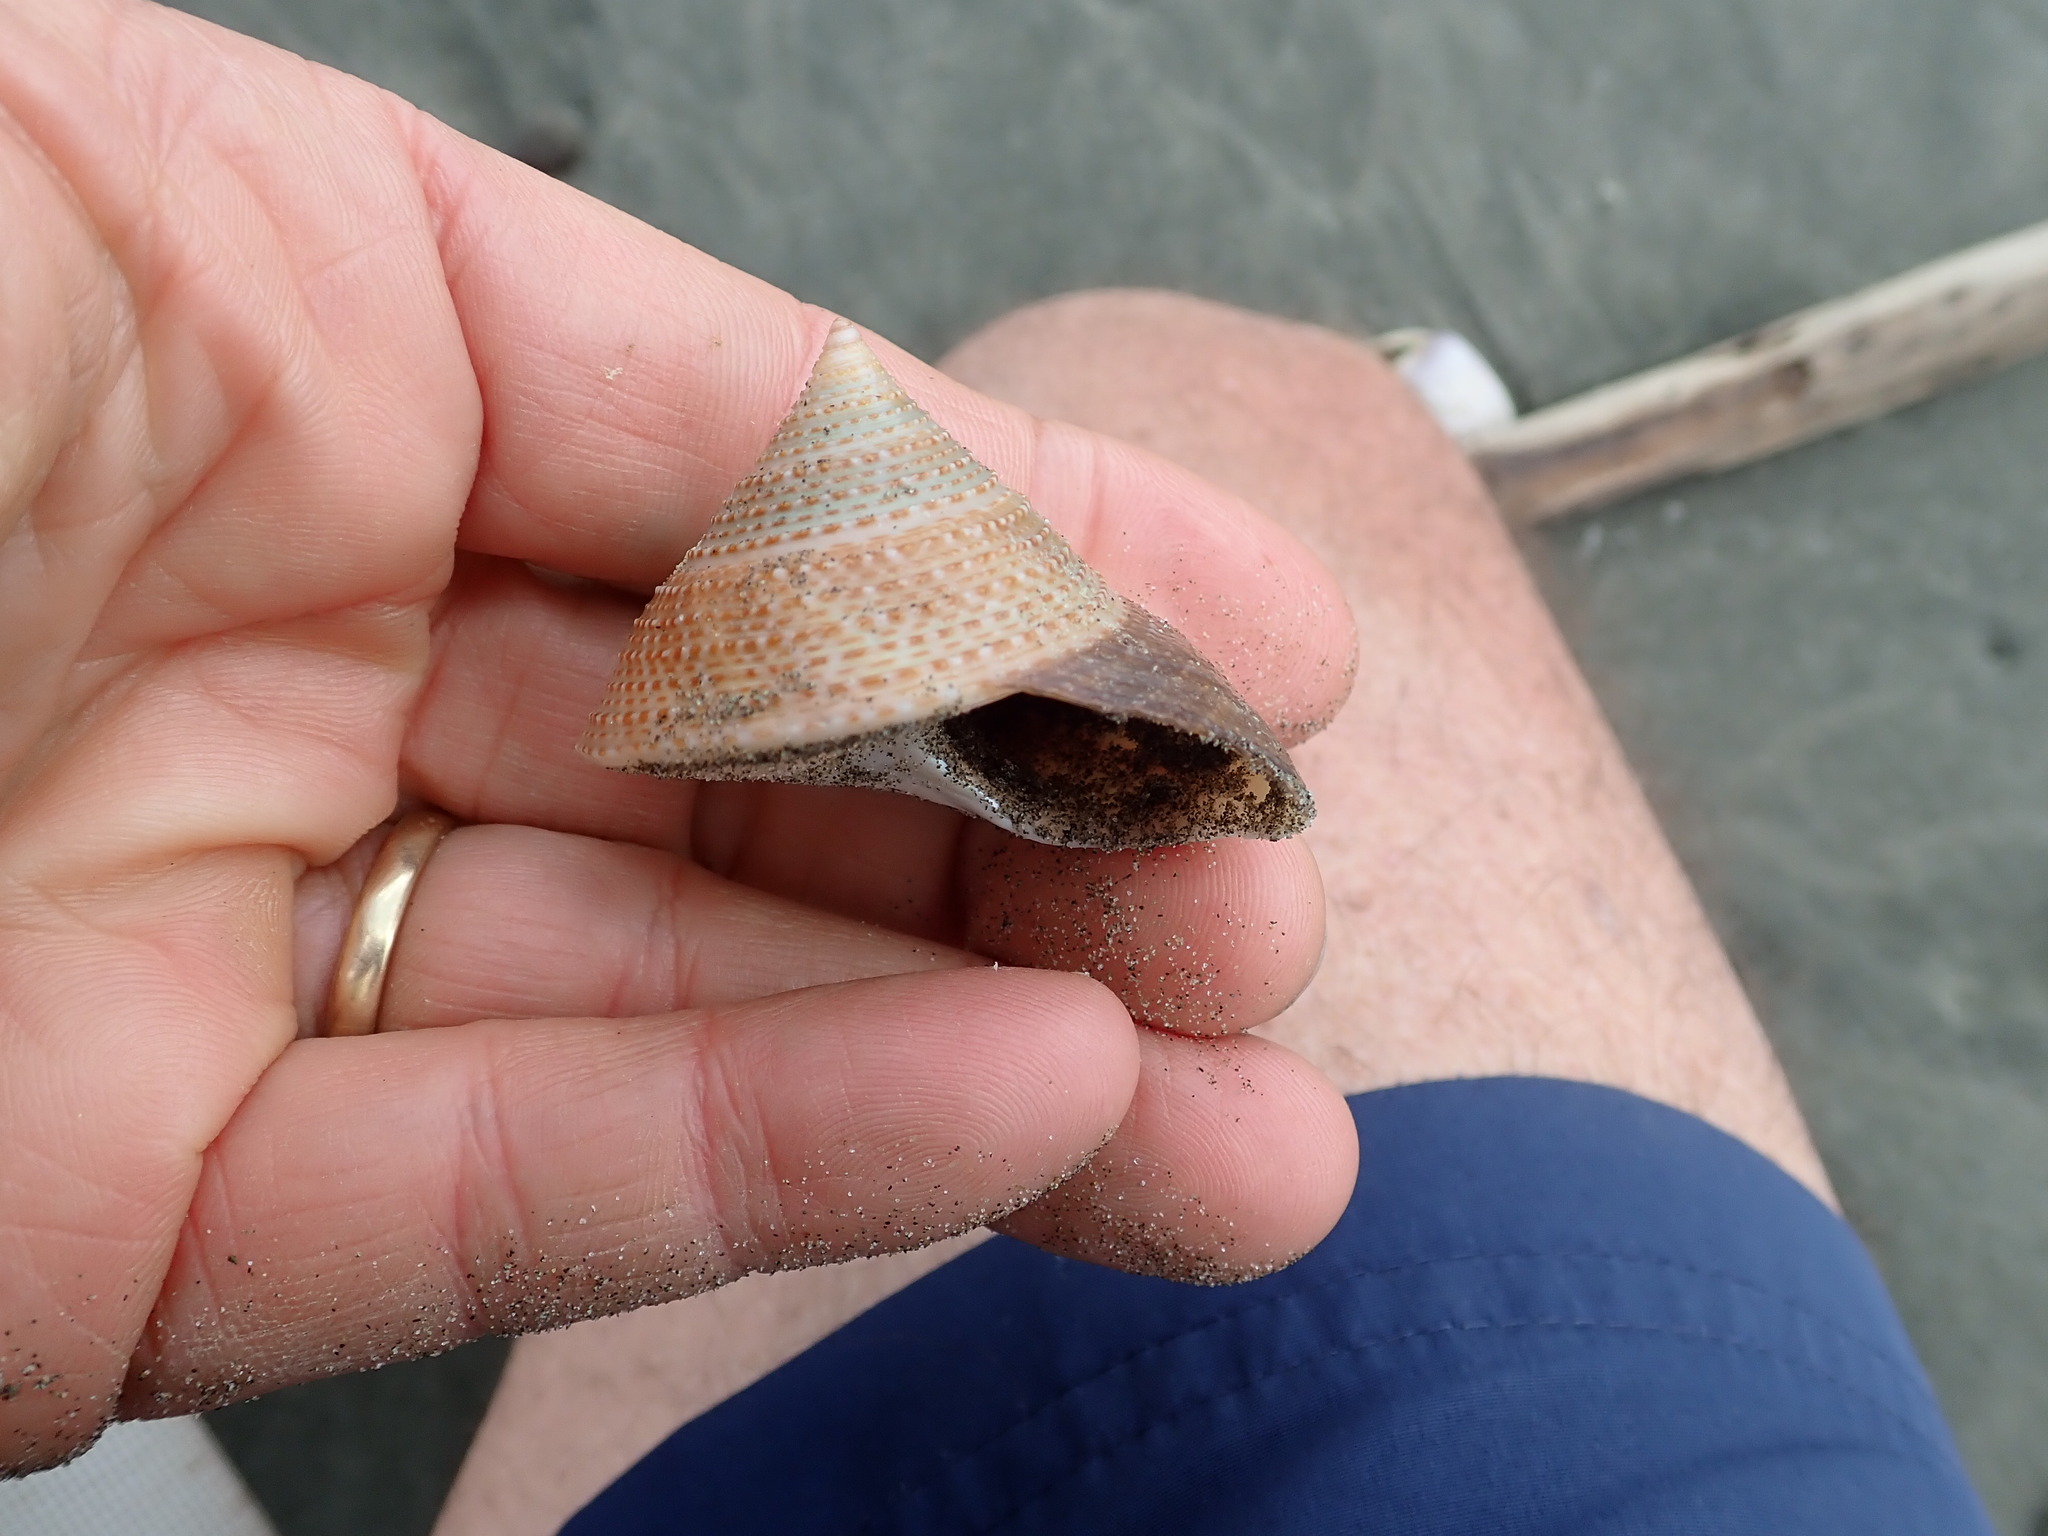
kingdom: Animalia
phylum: Mollusca
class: Gastropoda
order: Trochida
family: Calliostomatidae
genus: Maurea
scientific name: Maurea selecta
